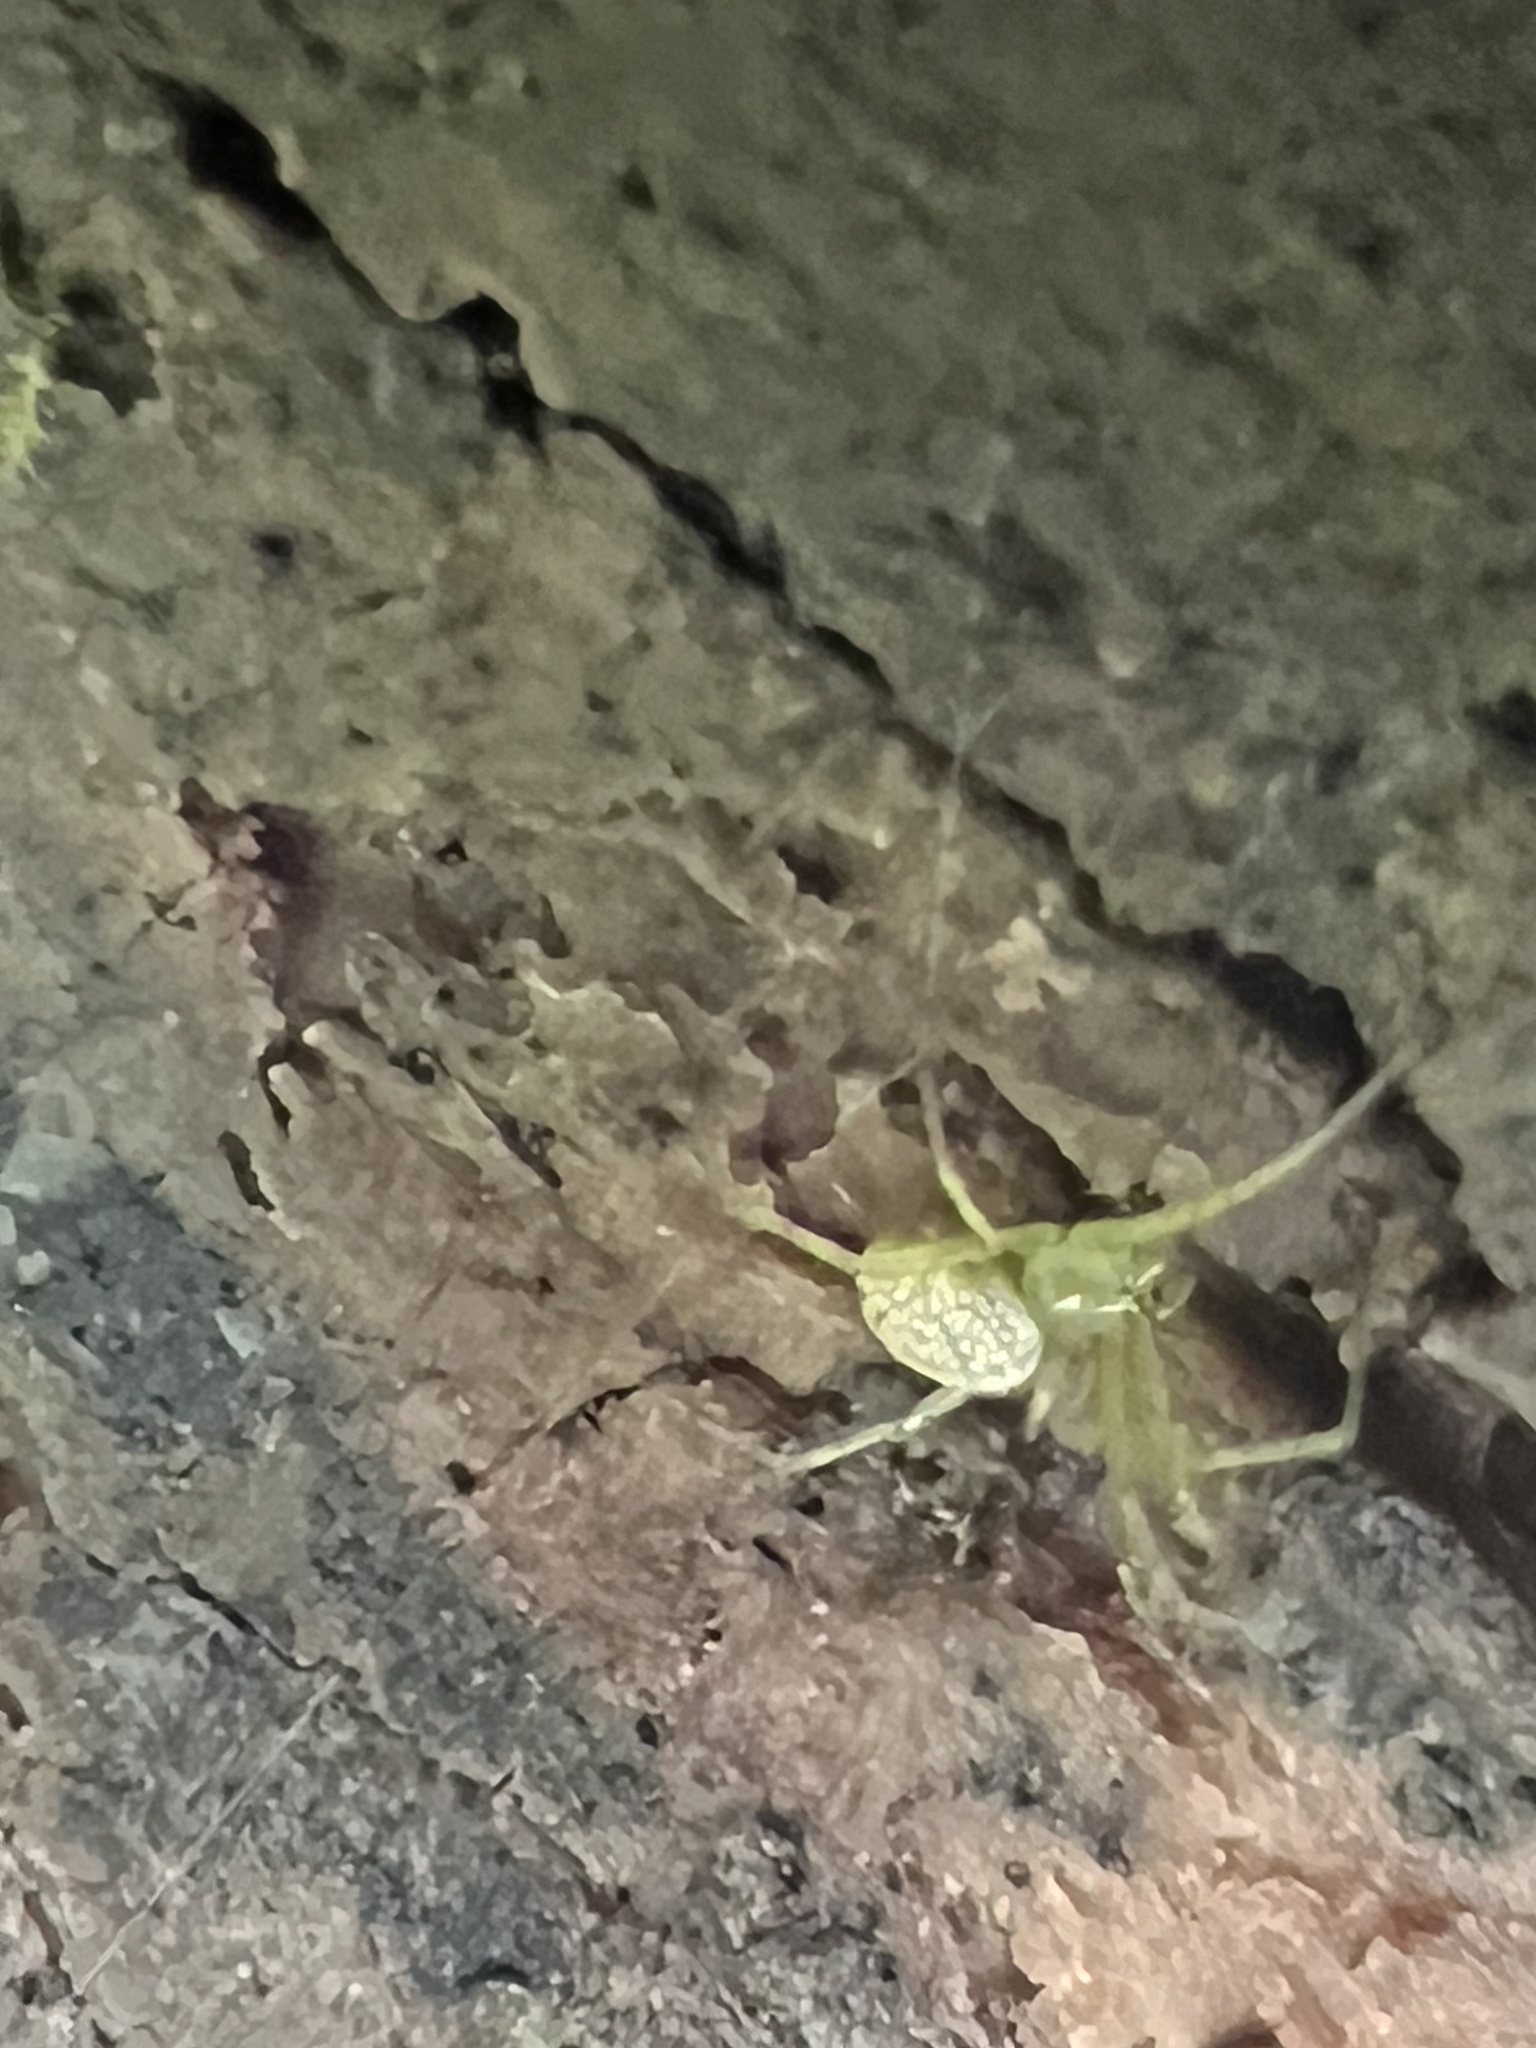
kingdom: Animalia
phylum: Arthropoda
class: Arachnida
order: Araneae
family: Araneidae
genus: Mangora
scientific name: Mangora maculata
